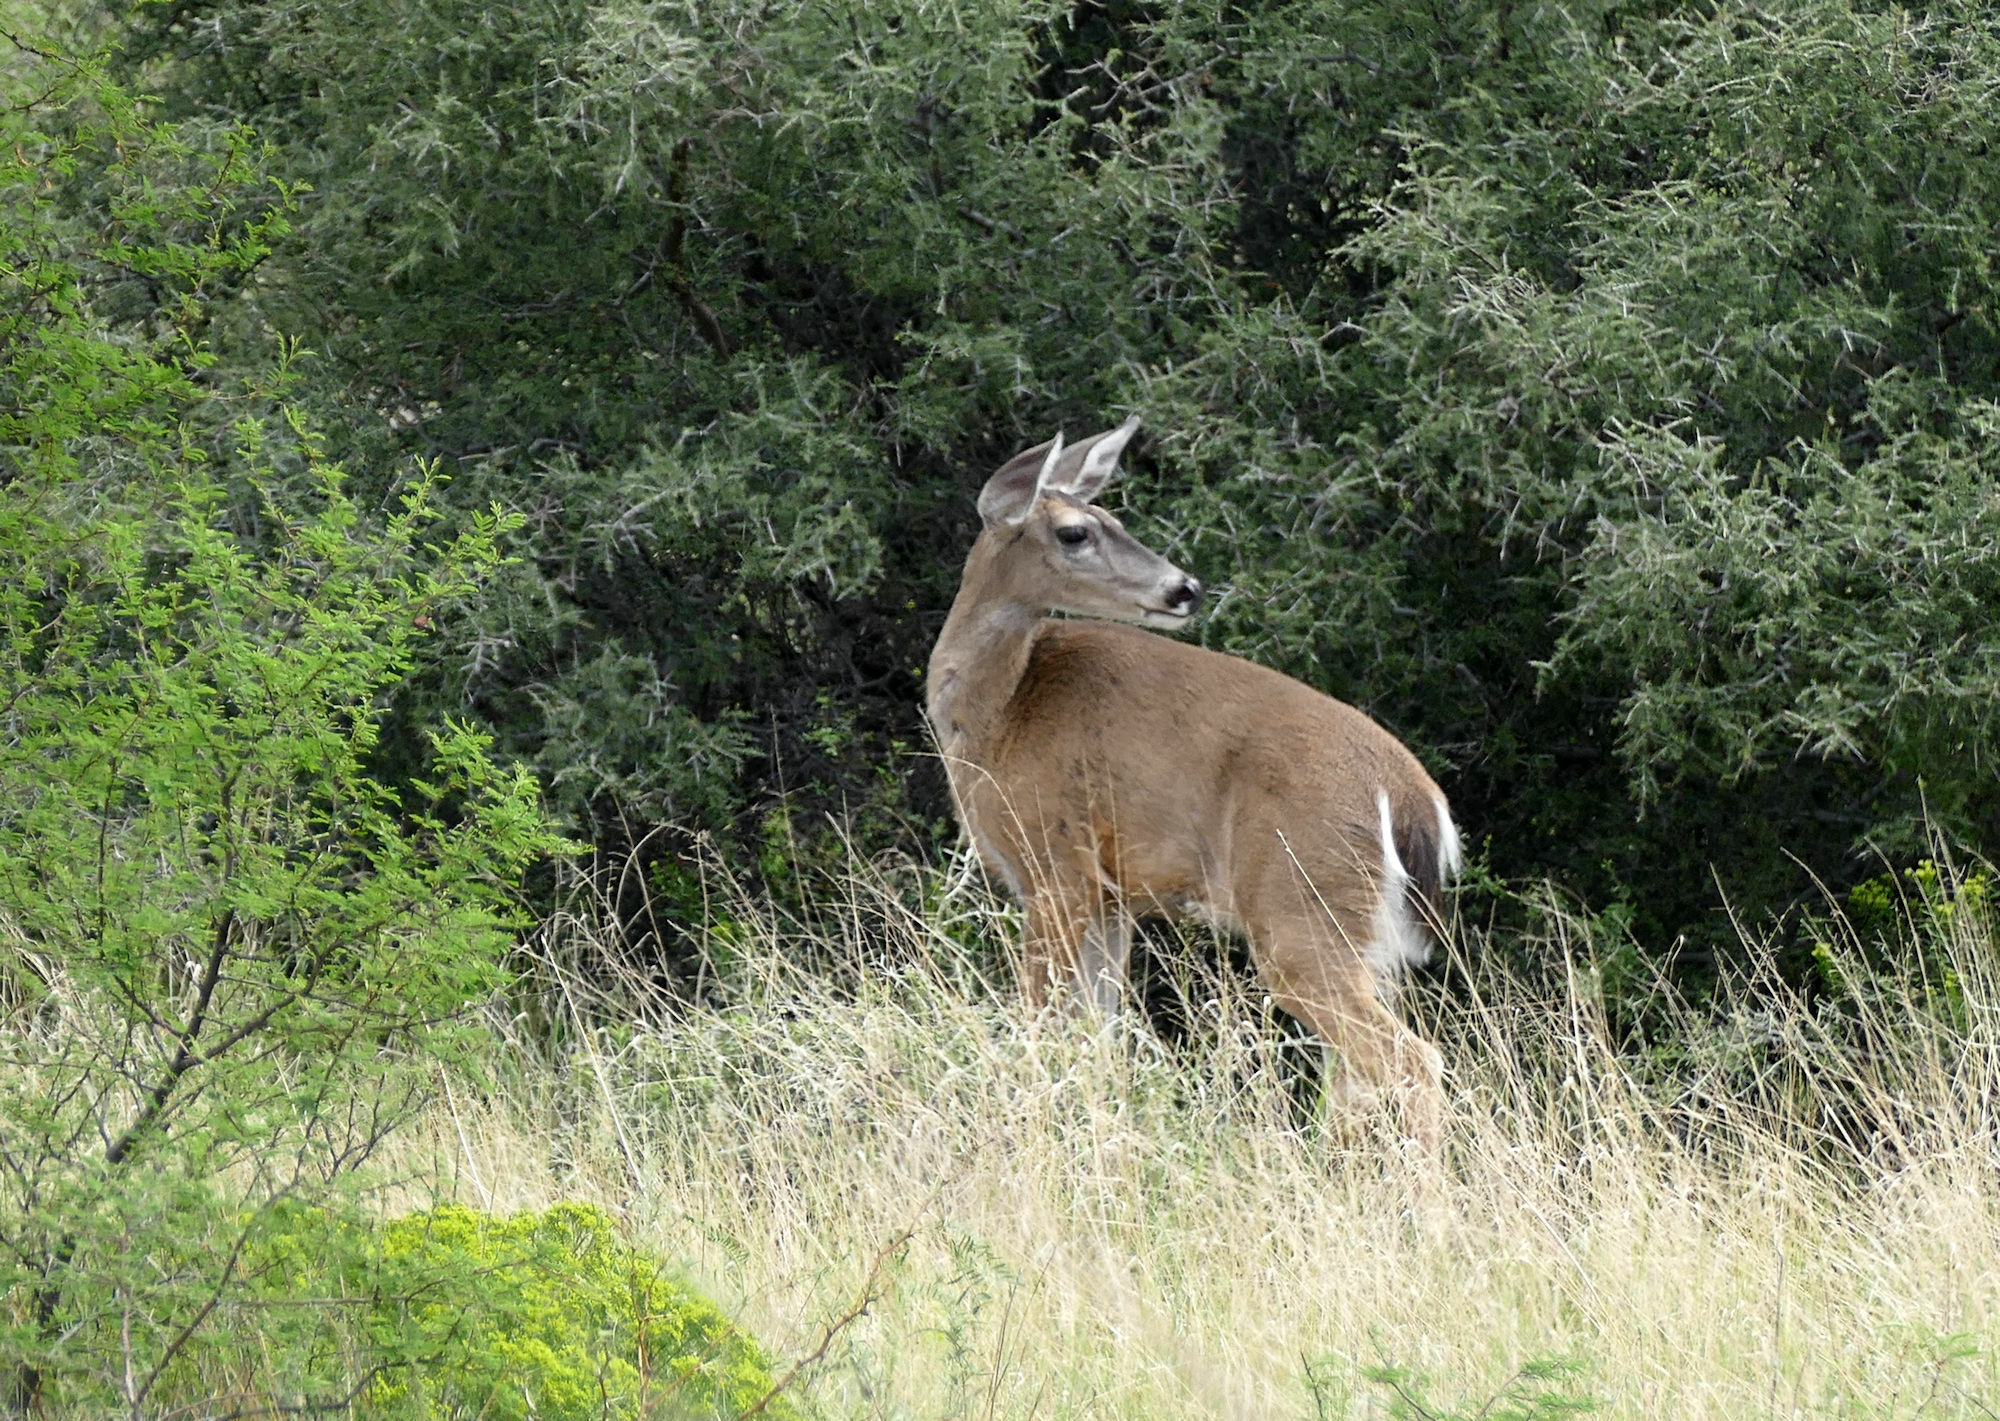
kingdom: Animalia
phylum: Chordata
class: Mammalia
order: Artiodactyla
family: Cervidae
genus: Odocoileus
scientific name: Odocoileus virginianus
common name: White-tailed deer
